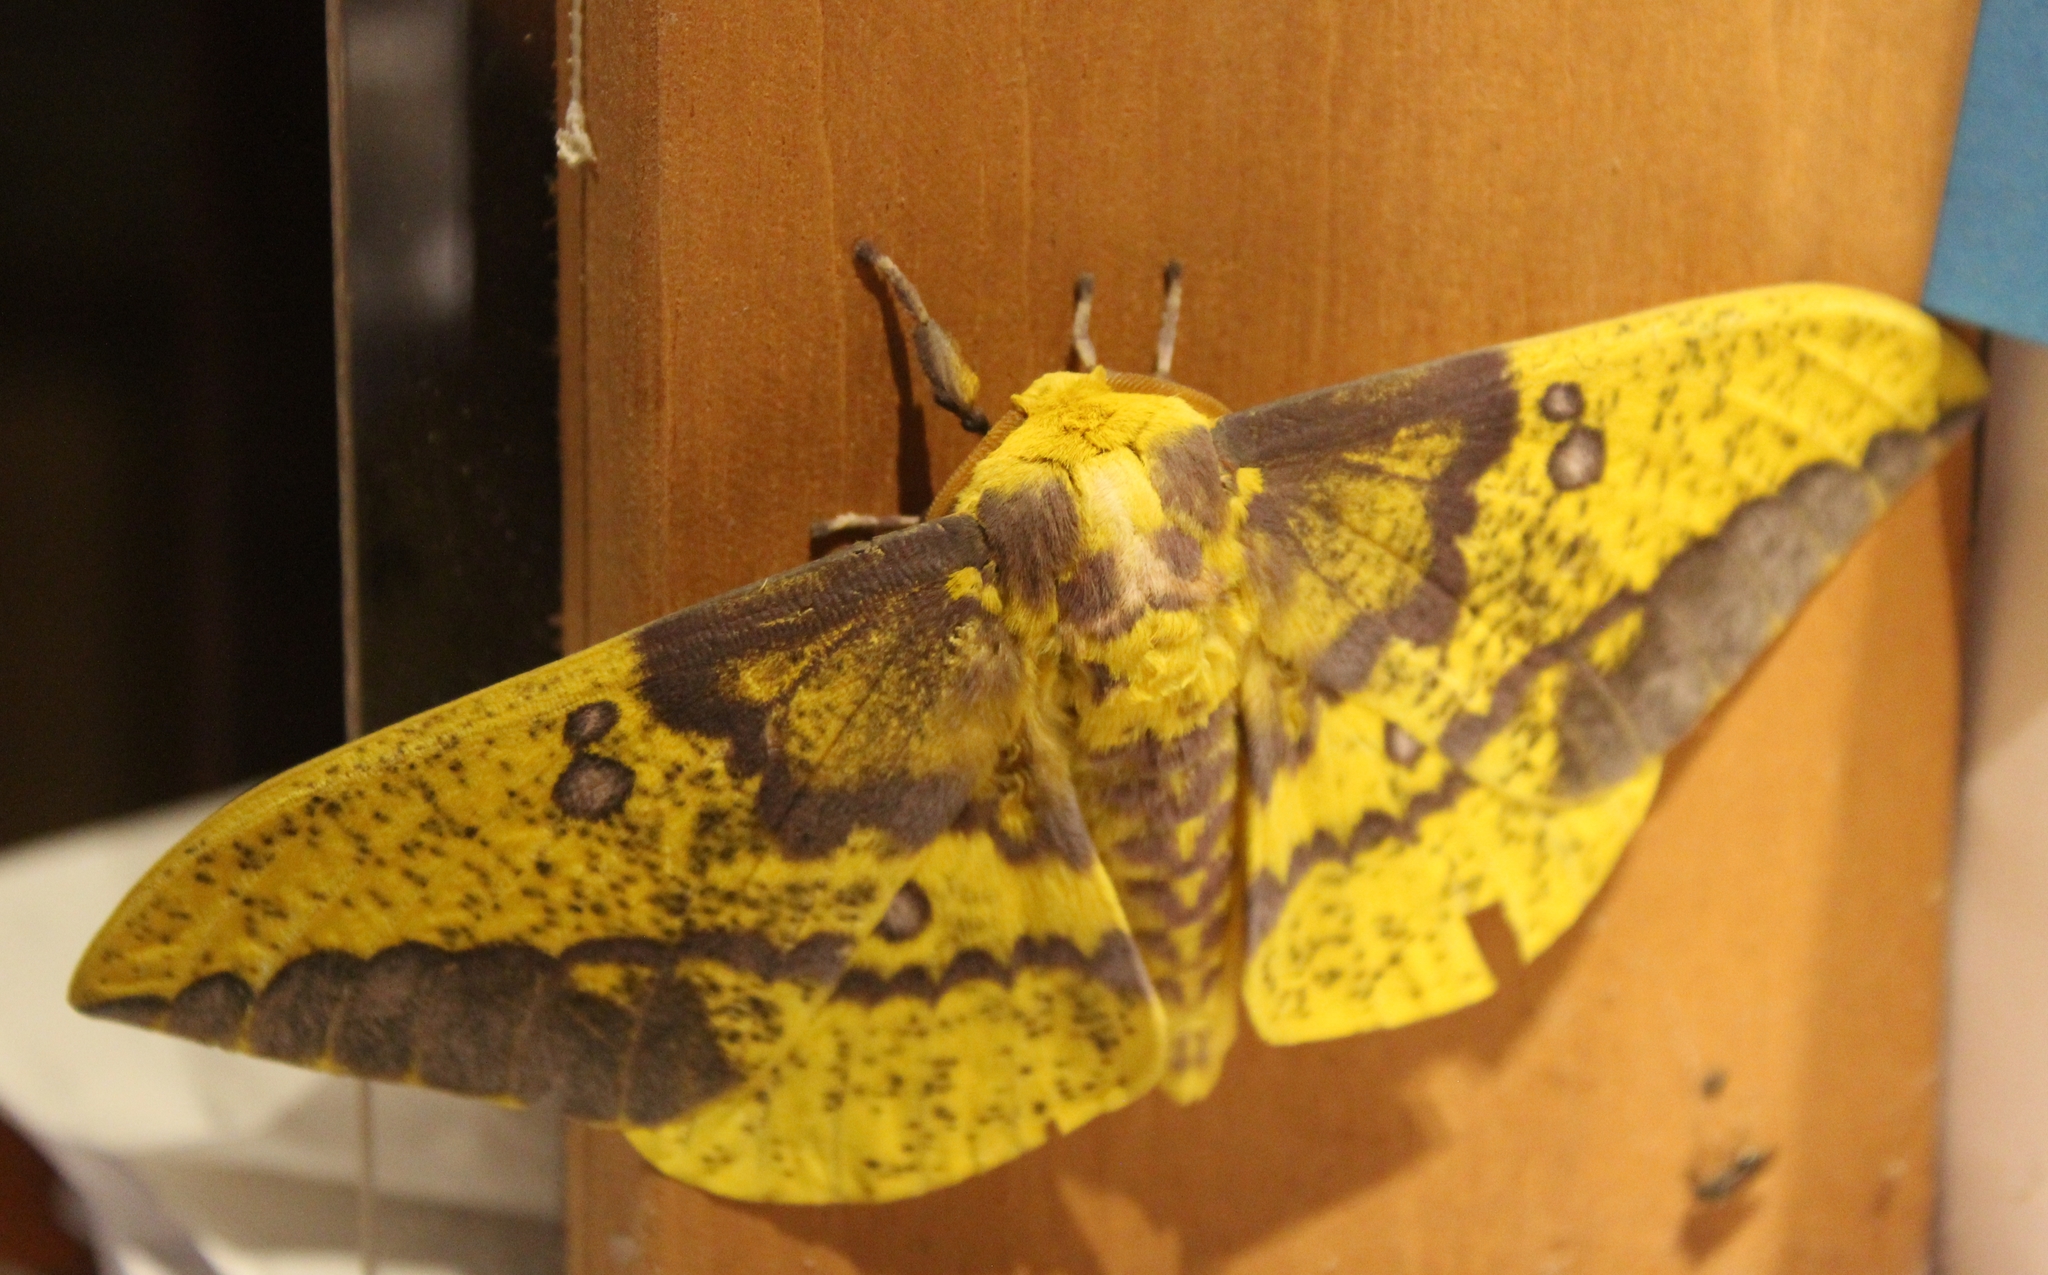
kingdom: Animalia
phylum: Arthropoda
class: Insecta
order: Lepidoptera
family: Saturniidae
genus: Eacles
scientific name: Eacles imperialis
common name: Imperial moth
